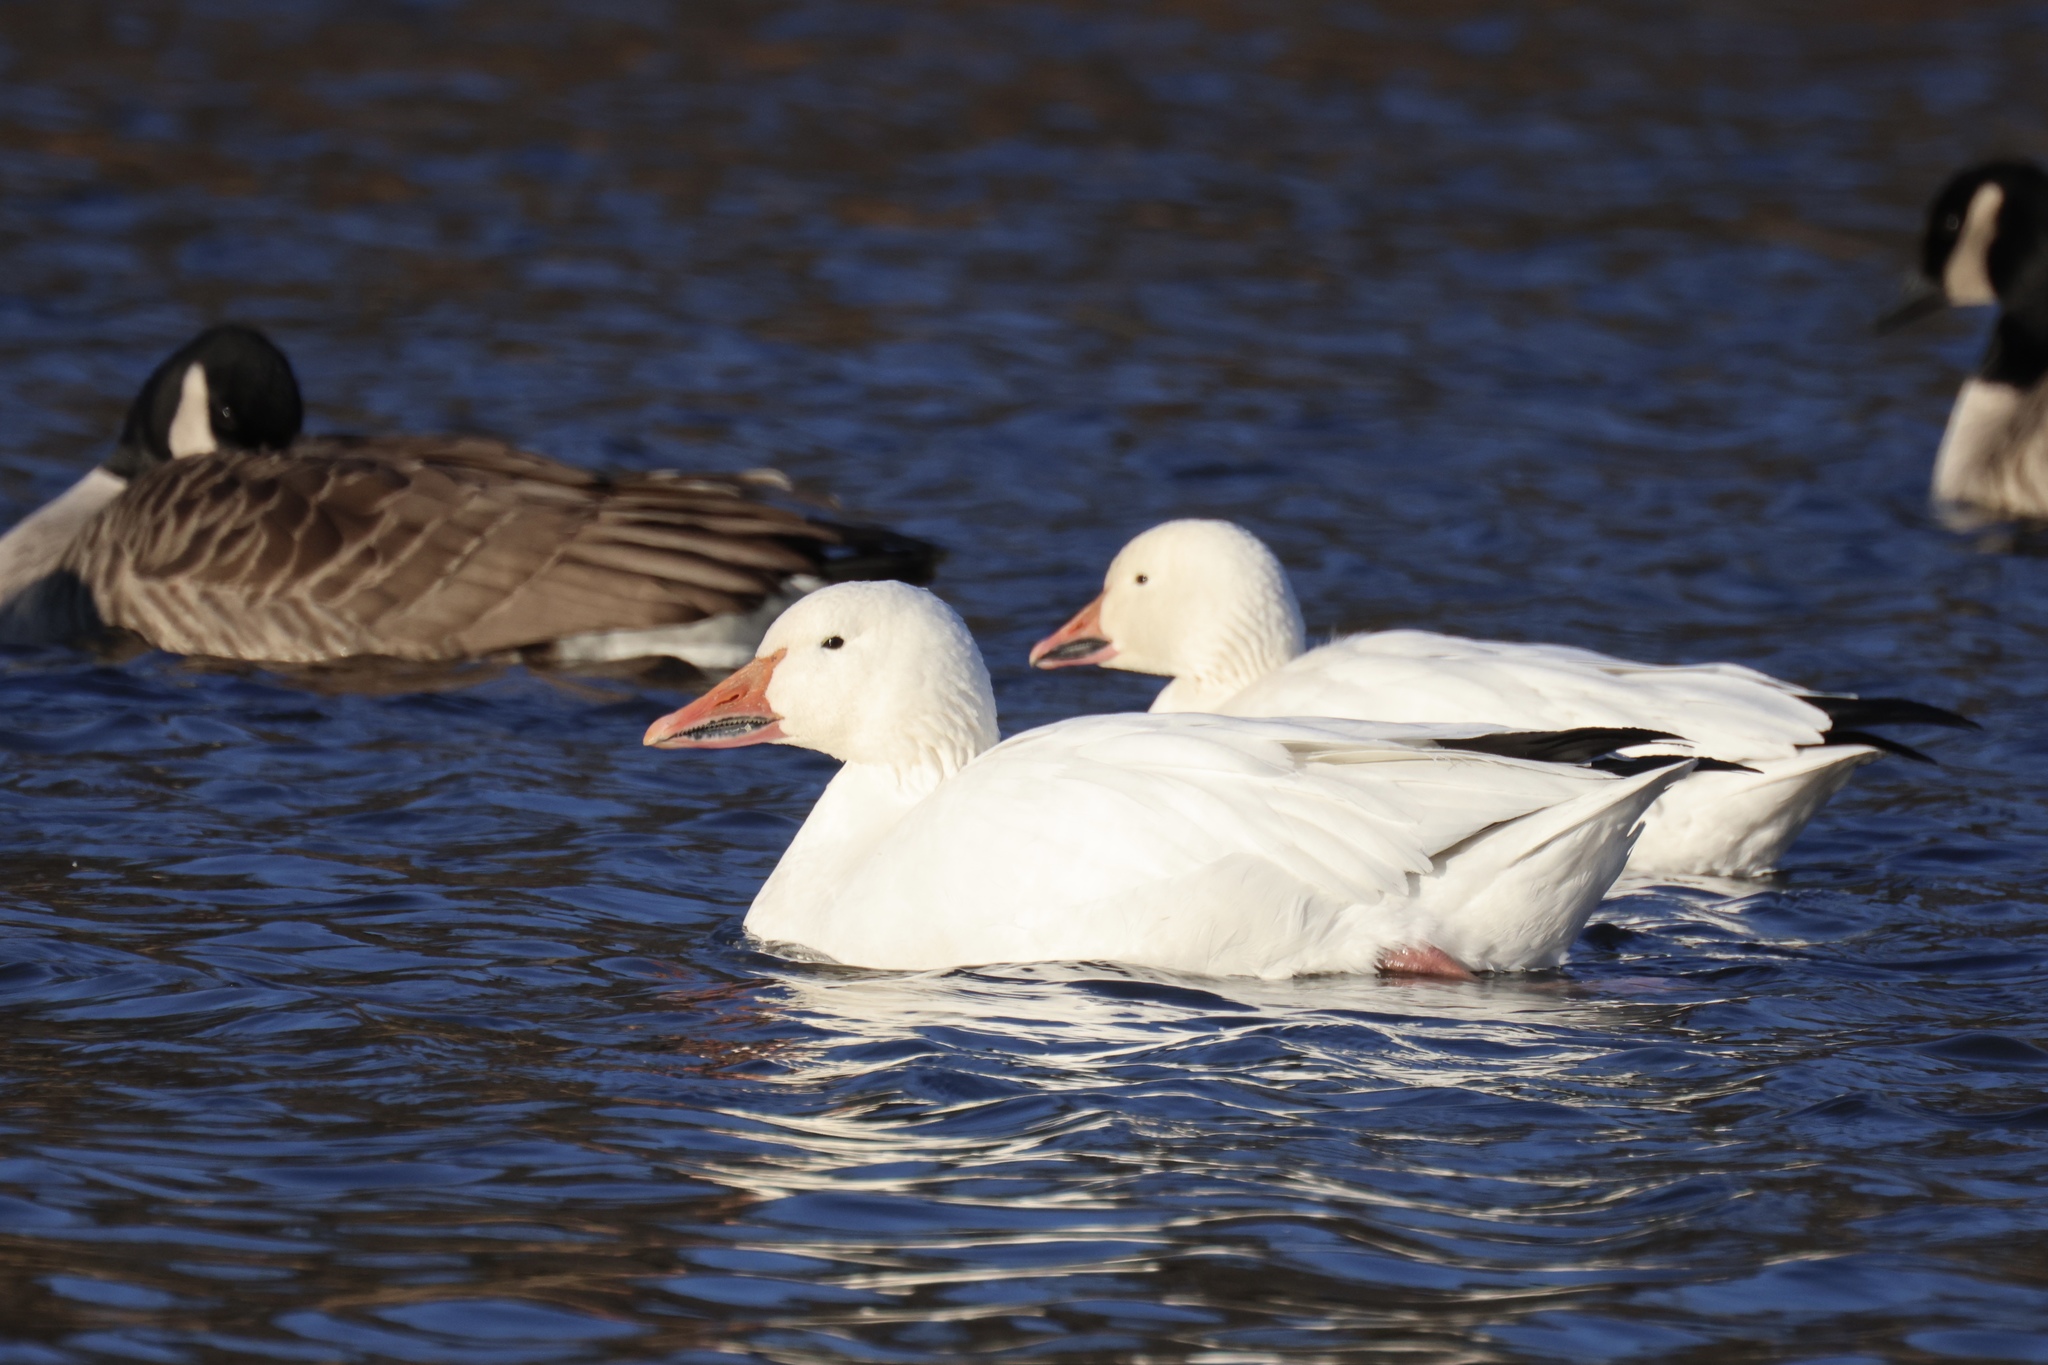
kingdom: Animalia
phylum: Chordata
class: Aves
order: Anseriformes
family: Anatidae
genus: Anser
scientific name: Anser caerulescens
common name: Snow goose
